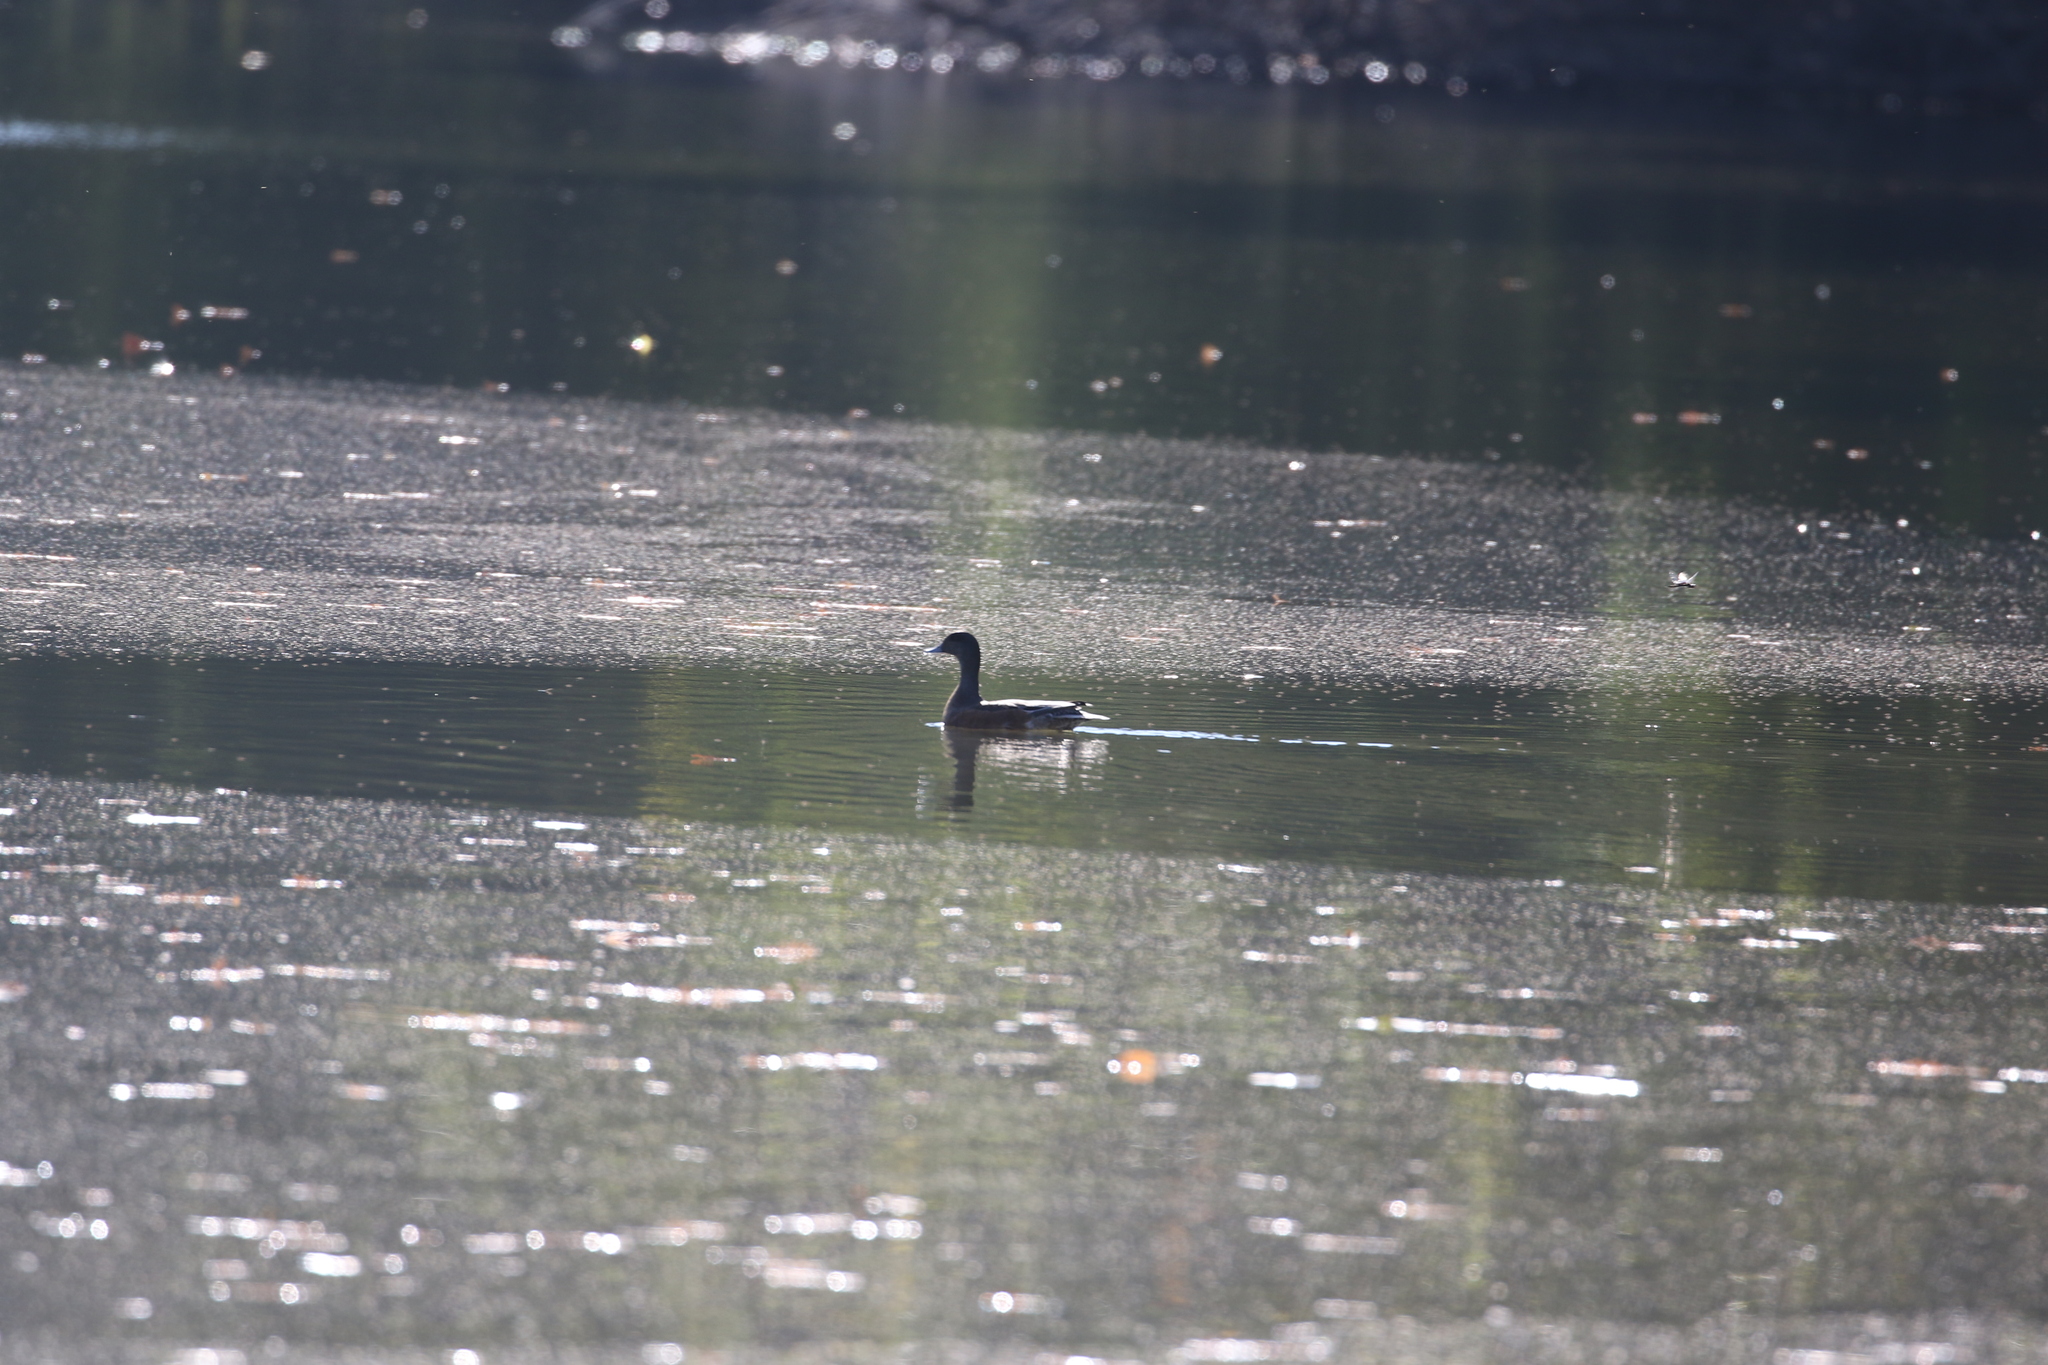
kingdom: Animalia
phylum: Chordata
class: Aves
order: Anseriformes
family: Anatidae
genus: Mareca
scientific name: Mareca americana
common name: American wigeon
